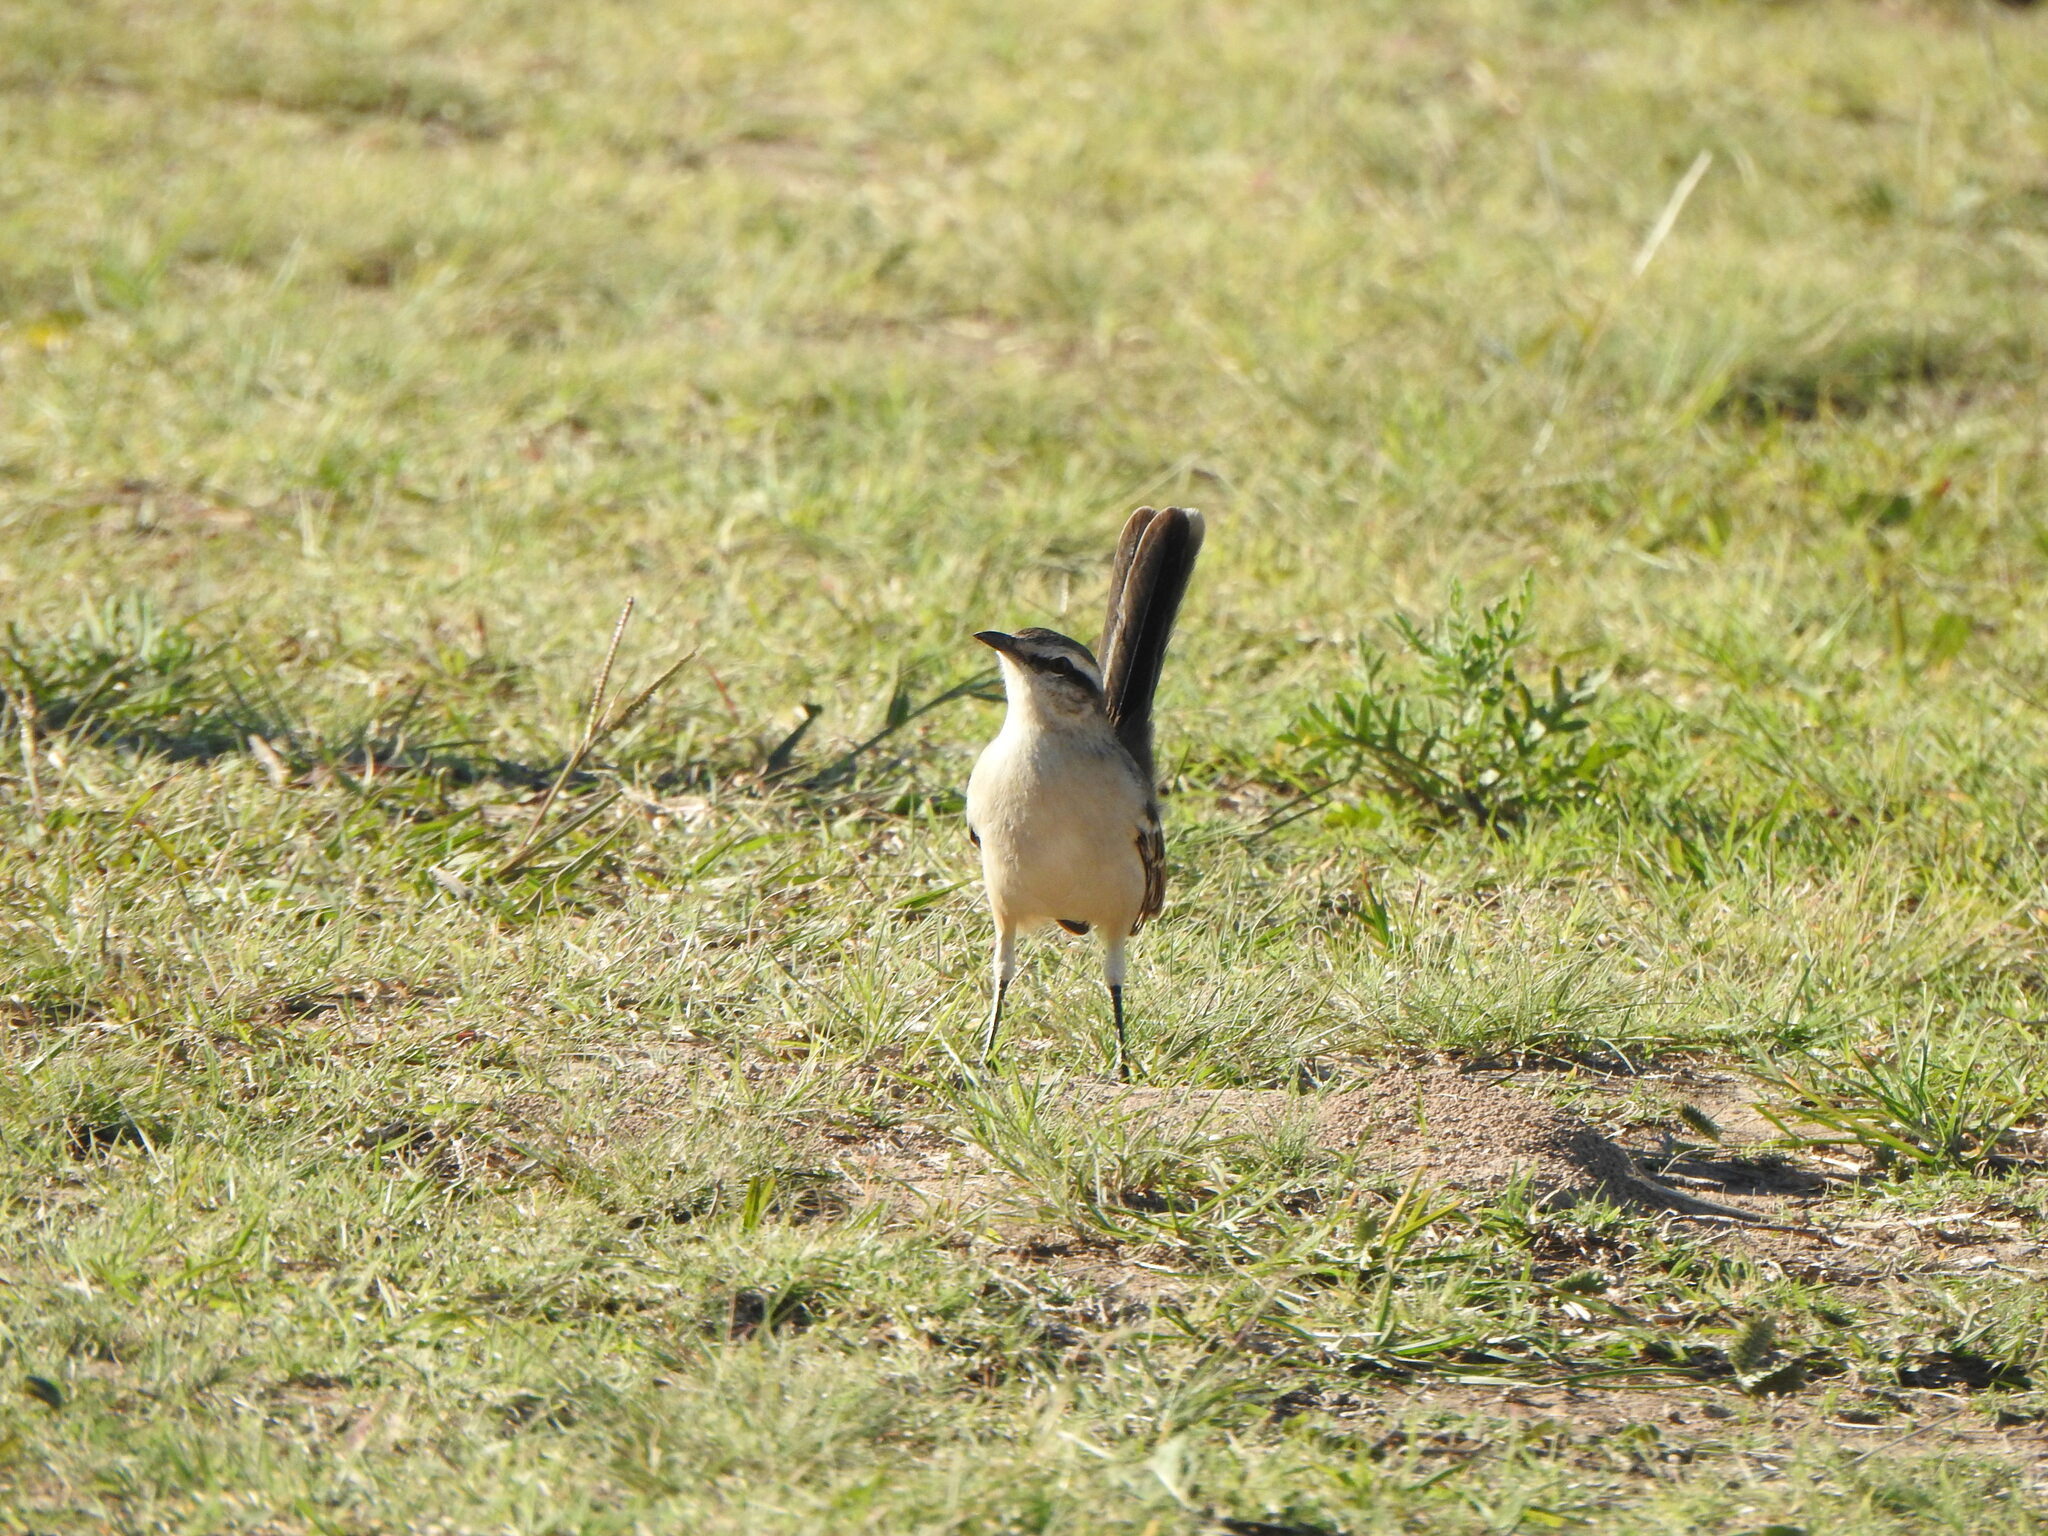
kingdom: Animalia
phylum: Chordata
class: Aves
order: Passeriformes
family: Mimidae
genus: Mimus
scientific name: Mimus saturninus
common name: Chalk-browed mockingbird
